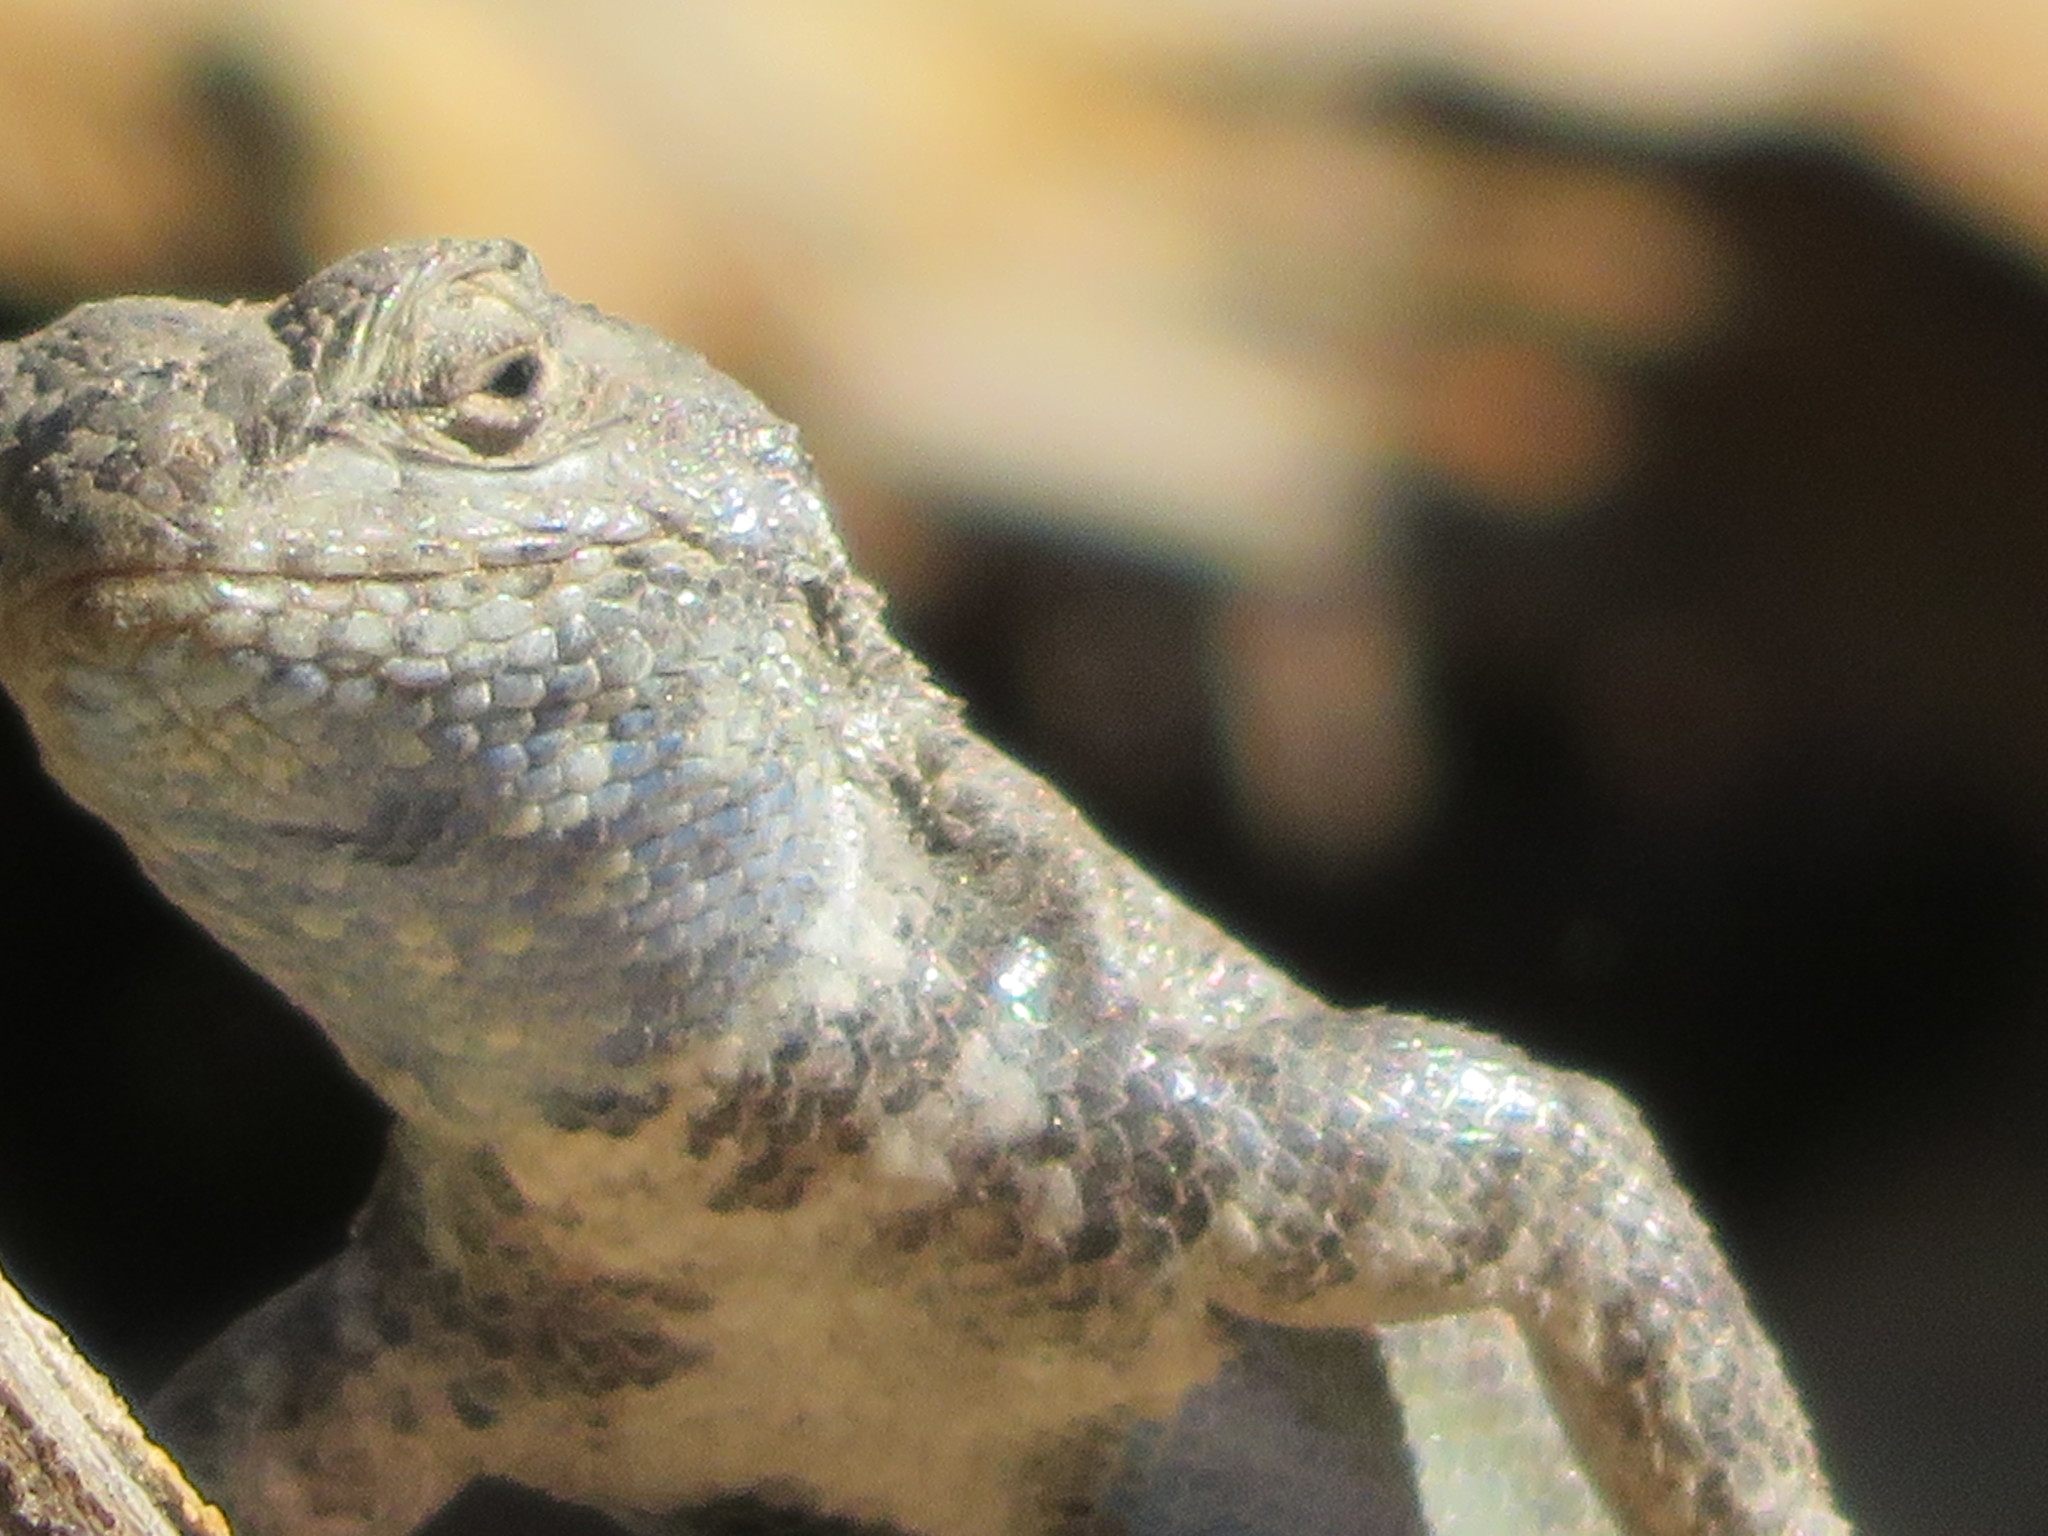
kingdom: Animalia
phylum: Chordata
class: Squamata
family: Phrynosomatidae
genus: Sceloporus
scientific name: Sceloporus graciosus
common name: Sagebrush lizard
